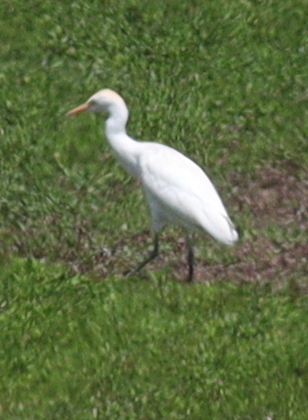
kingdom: Animalia
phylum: Chordata
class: Aves
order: Pelecaniformes
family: Ardeidae
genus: Bubulcus
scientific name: Bubulcus ibis
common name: Cattle egret
